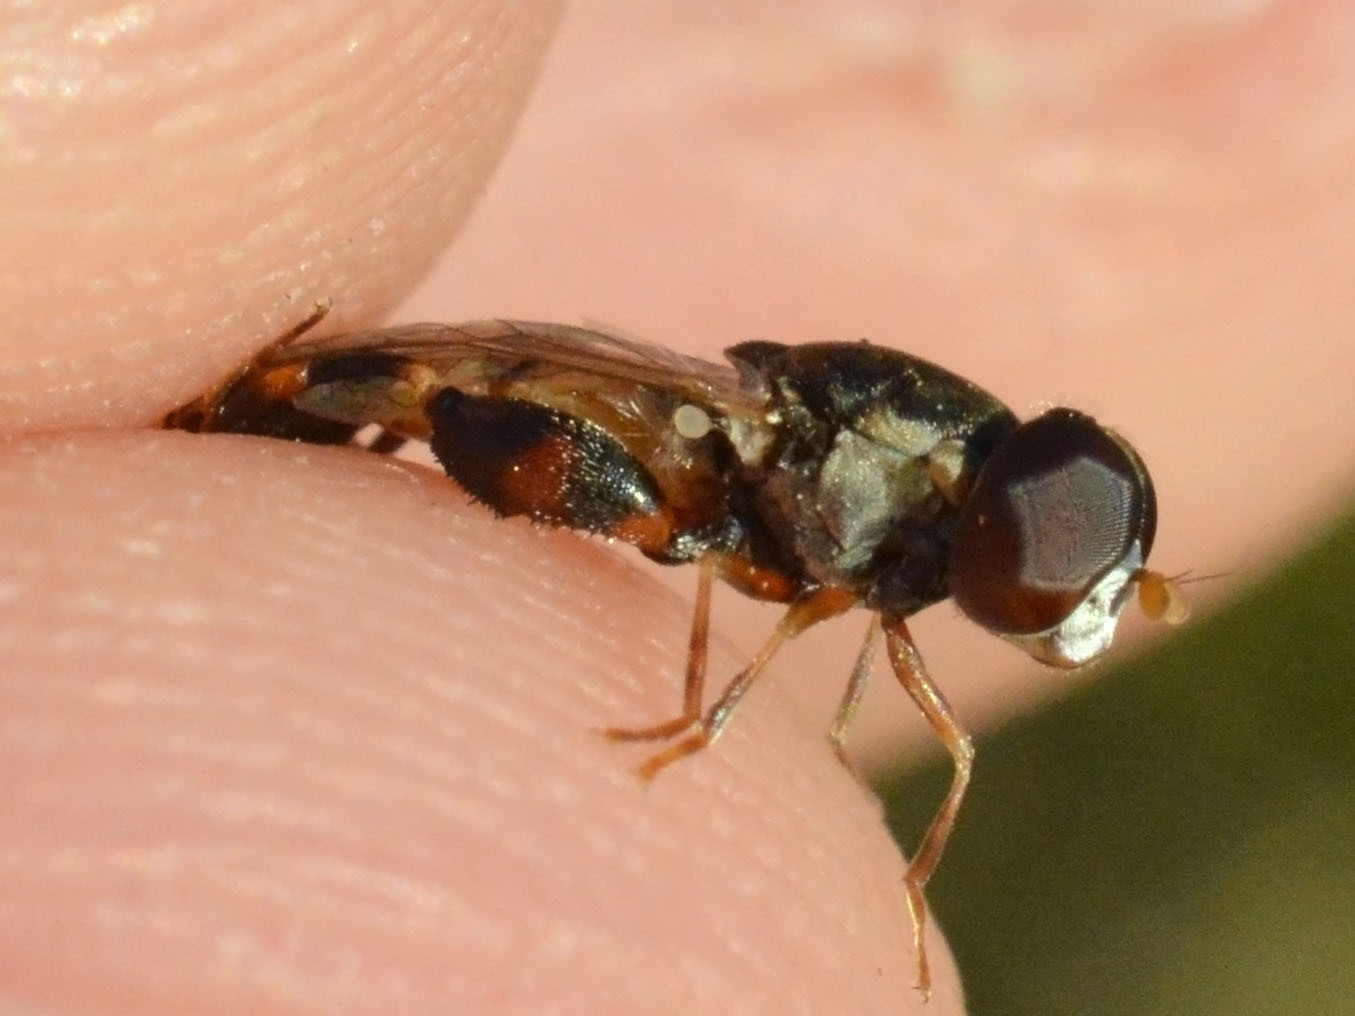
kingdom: Animalia
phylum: Arthropoda
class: Insecta
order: Diptera
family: Syrphidae
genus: Syritta
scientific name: Syritta pipiens
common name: Hover fly
